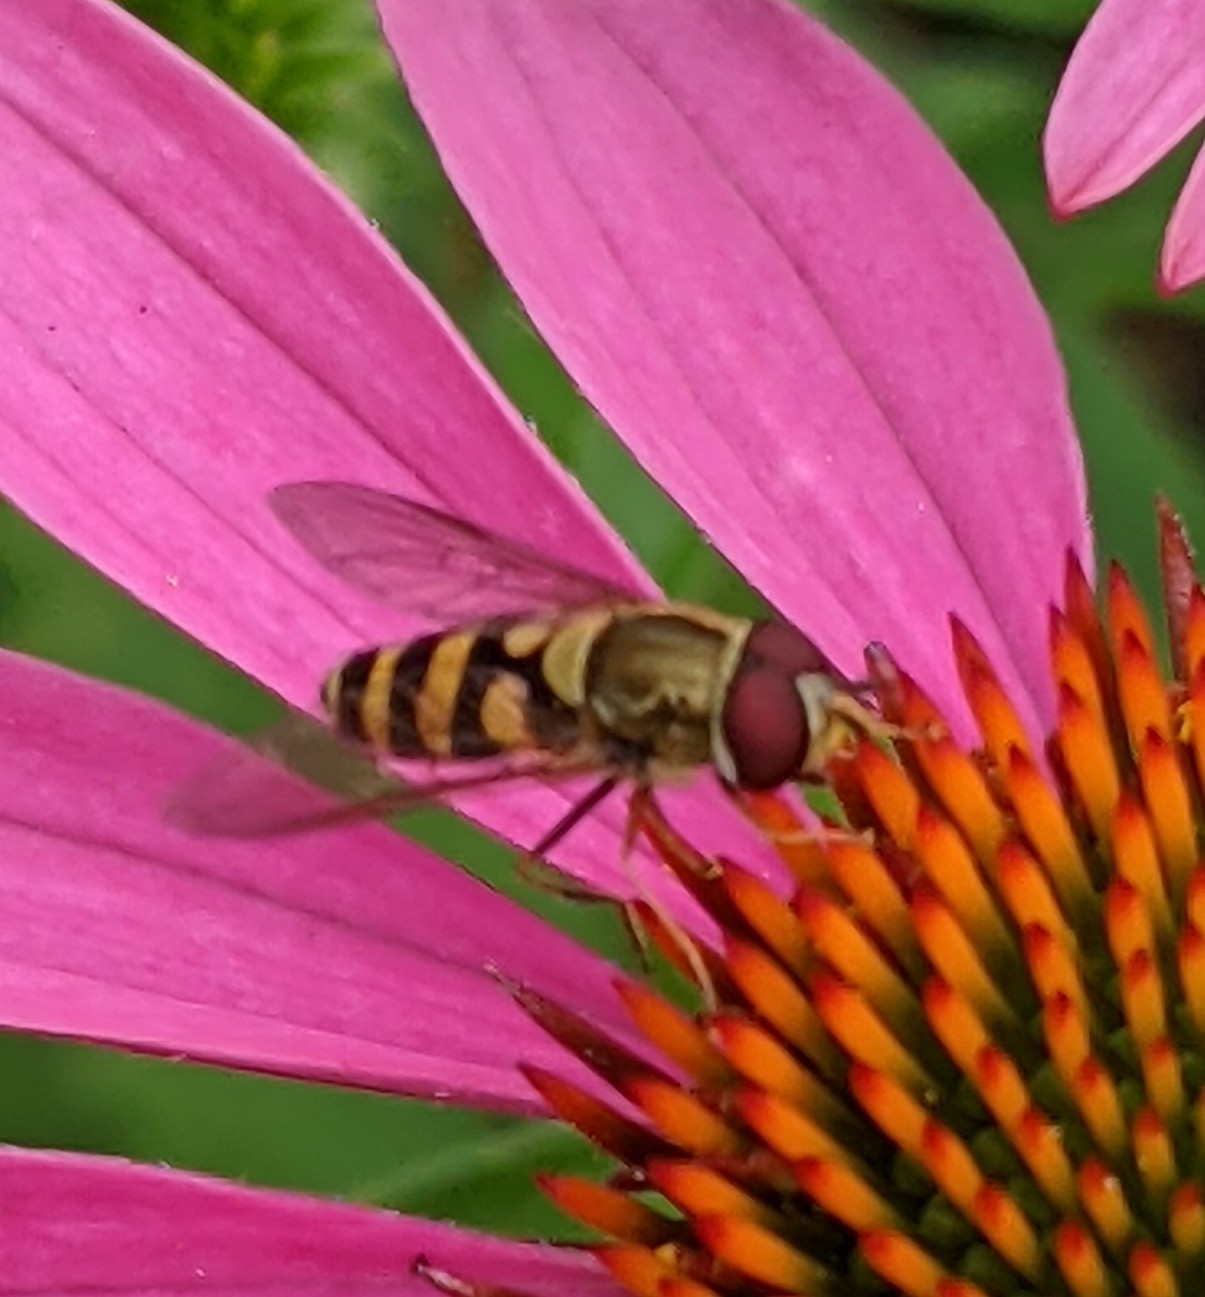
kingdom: Animalia
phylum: Arthropoda
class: Insecta
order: Diptera
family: Syrphidae
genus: Syrphus
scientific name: Syrphus
